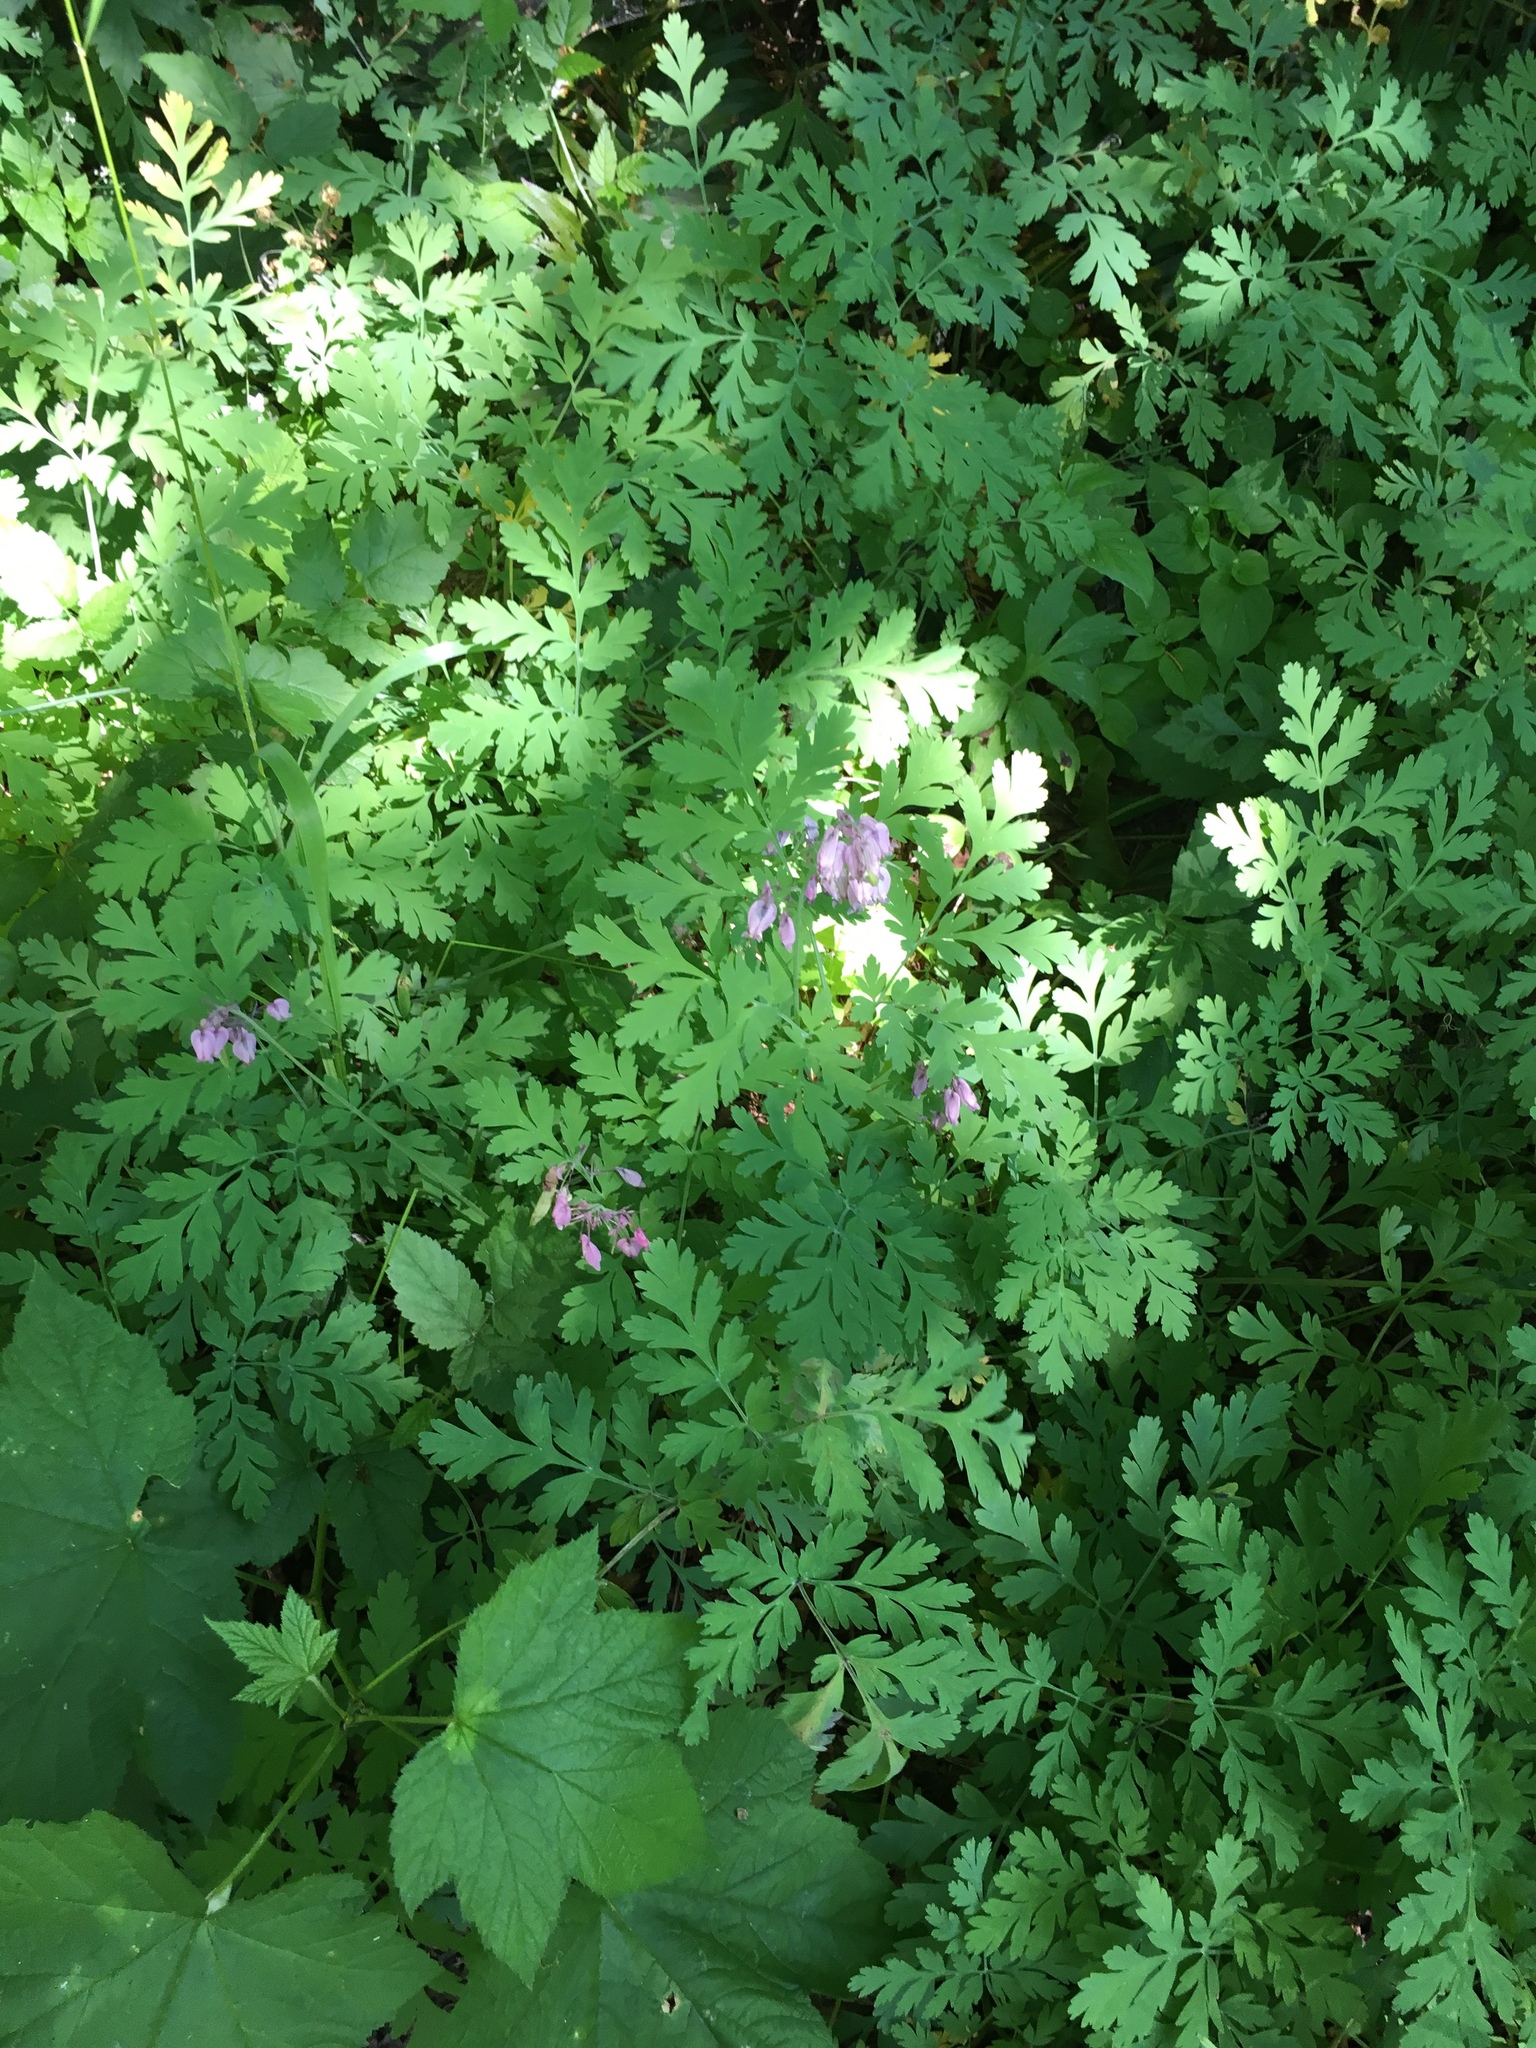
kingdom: Plantae
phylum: Tracheophyta
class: Magnoliopsida
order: Ranunculales
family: Papaveraceae
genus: Dicentra
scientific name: Dicentra formosa
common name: Bleeding-heart
